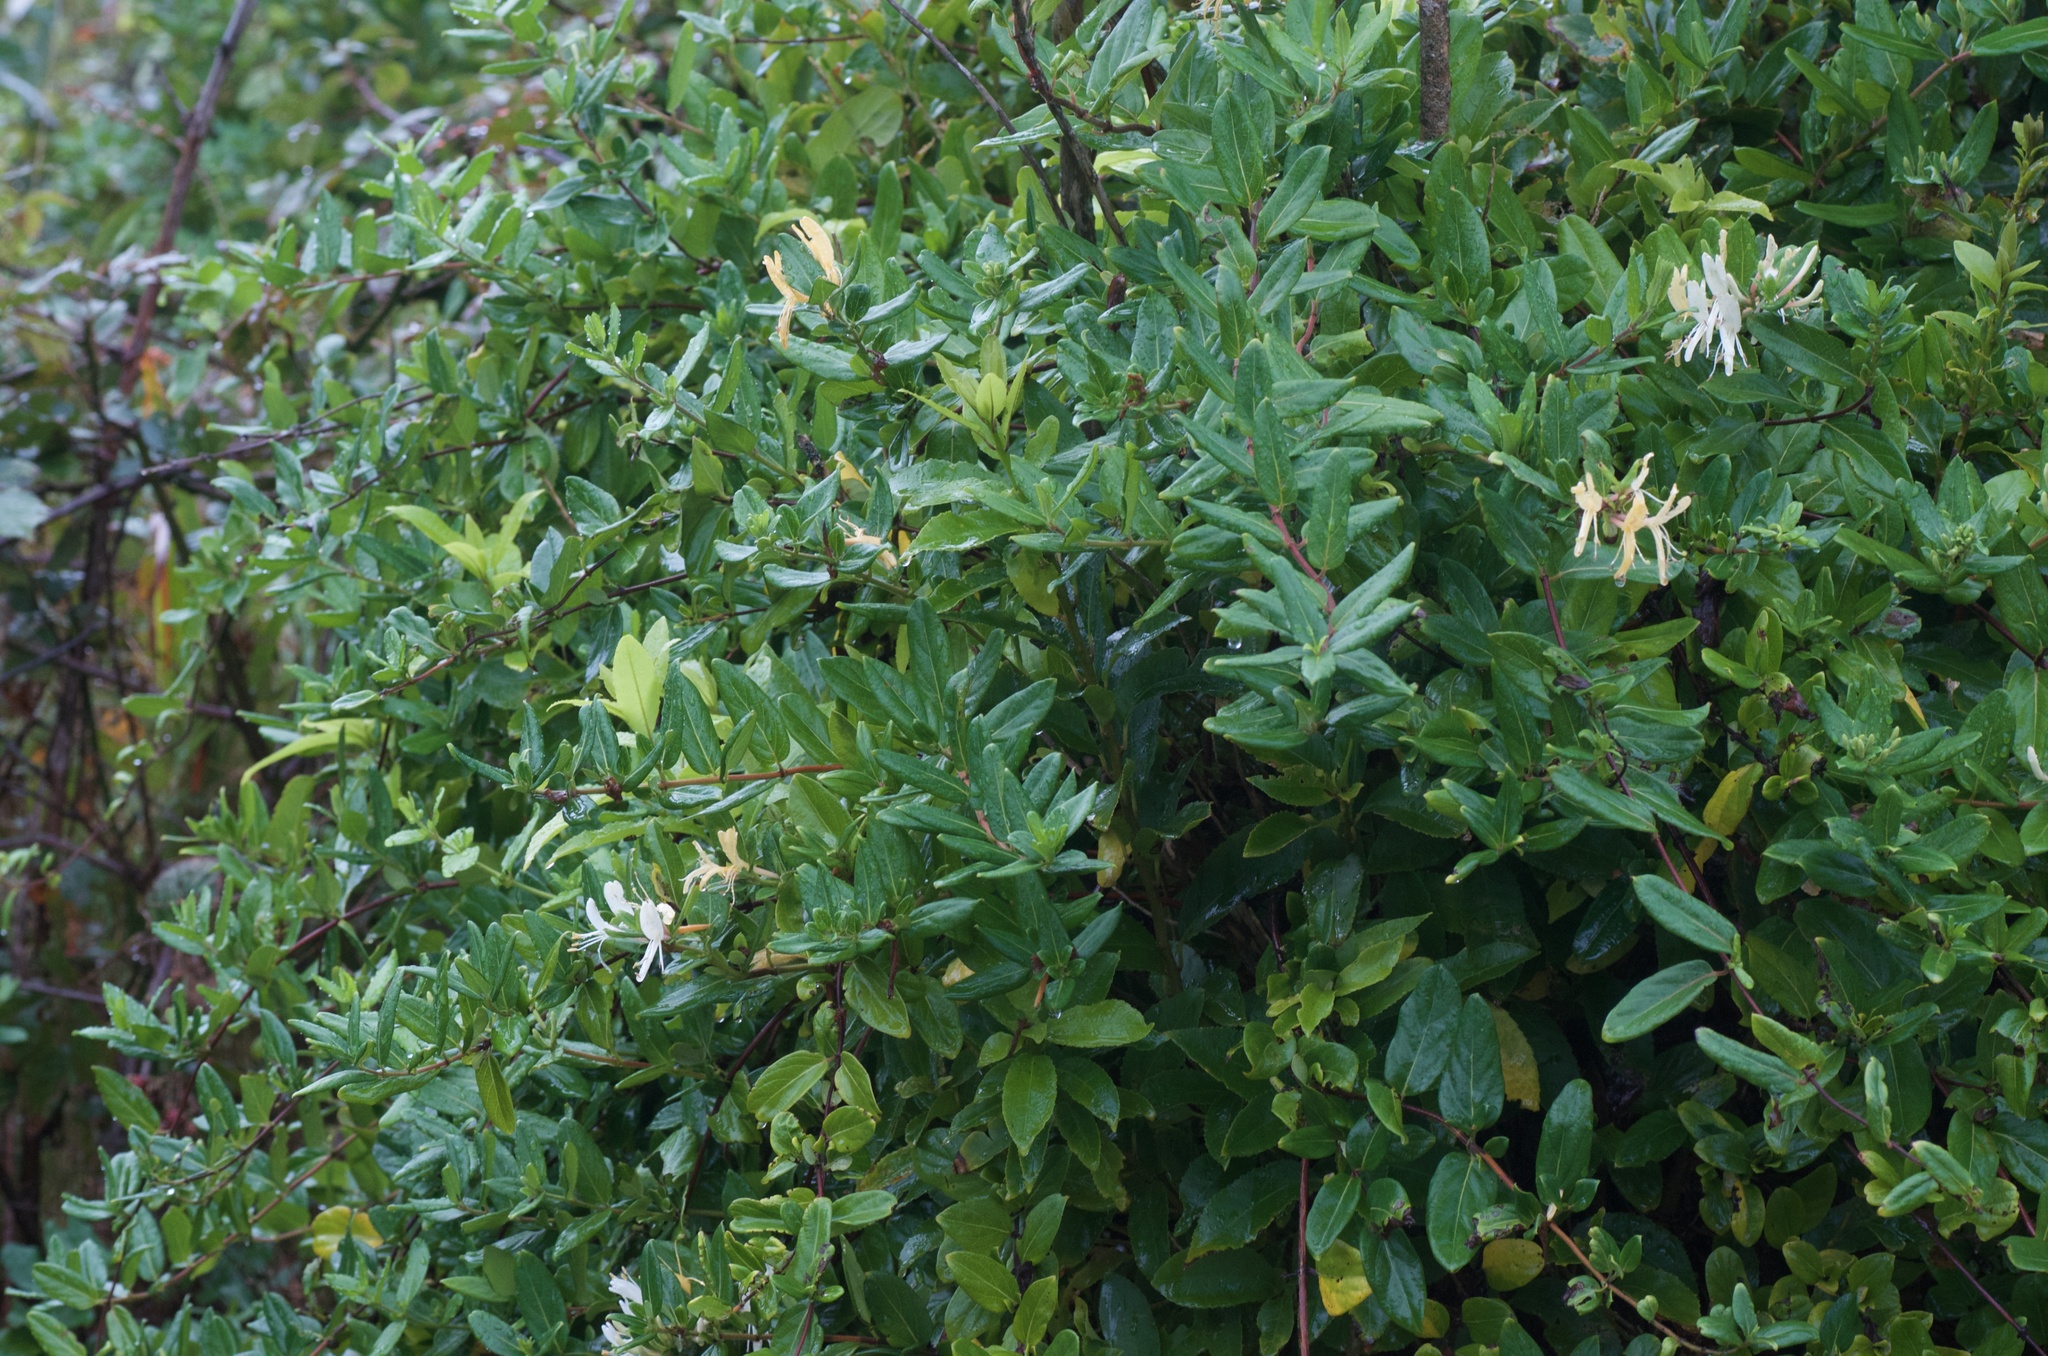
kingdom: Plantae
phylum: Tracheophyta
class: Magnoliopsida
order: Dipsacales
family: Caprifoliaceae
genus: Lonicera
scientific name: Lonicera japonica
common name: Japanese honeysuckle
